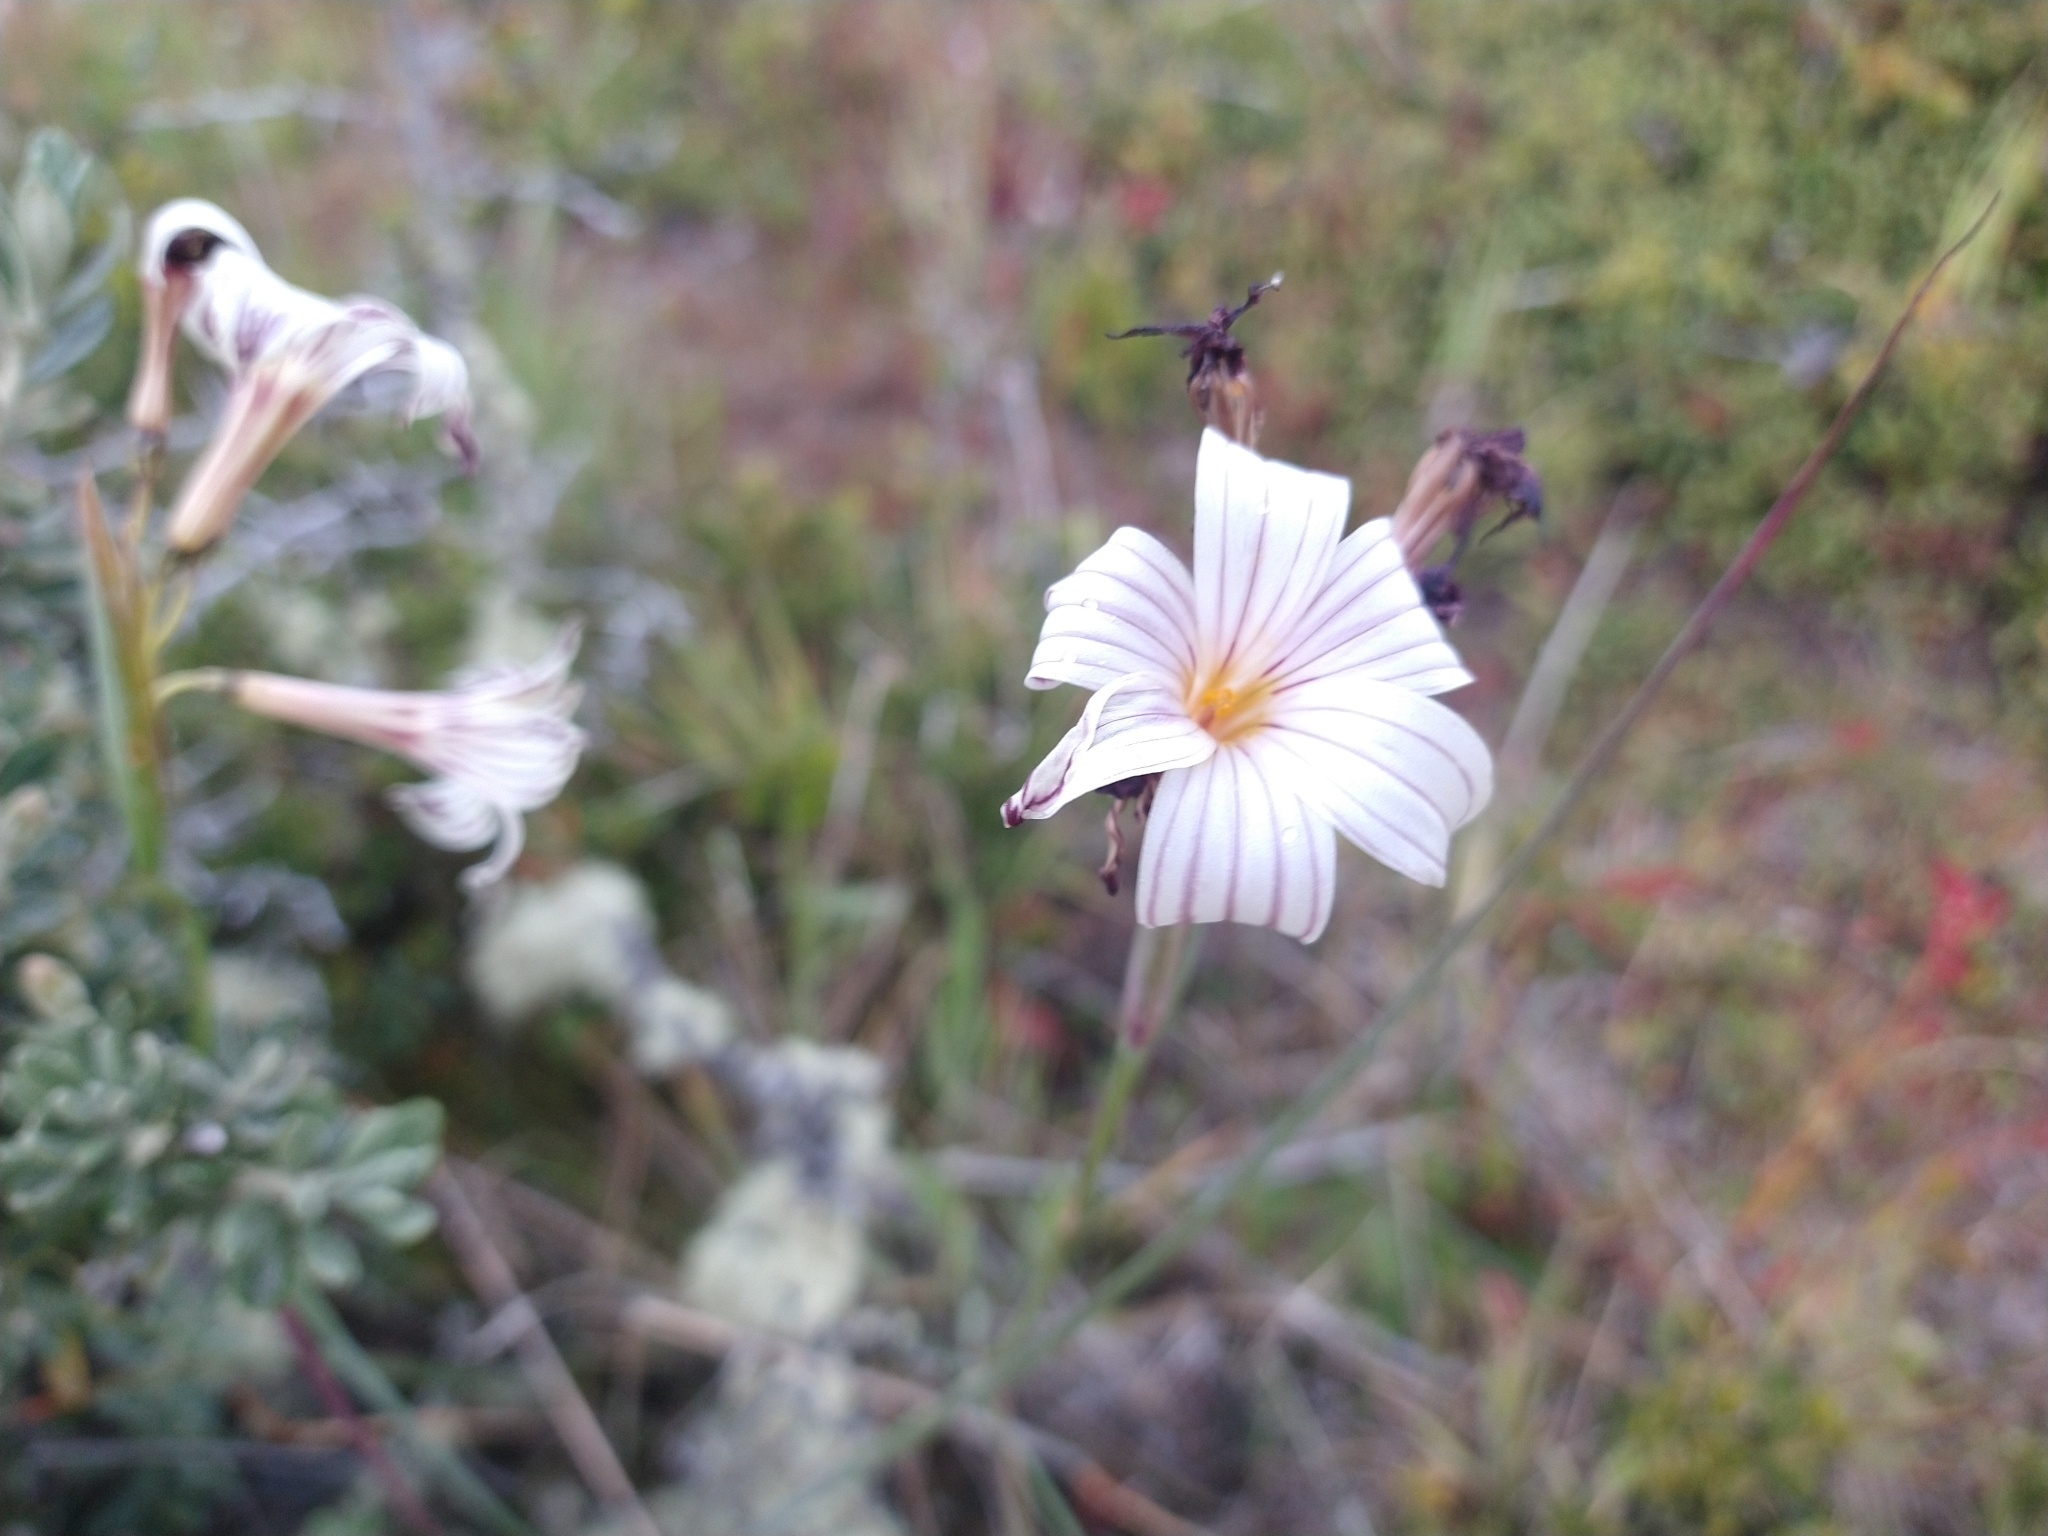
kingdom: Plantae
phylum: Tracheophyta
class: Liliopsida
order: Asparagales
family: Iridaceae
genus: Olsynium
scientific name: Olsynium biflorum
